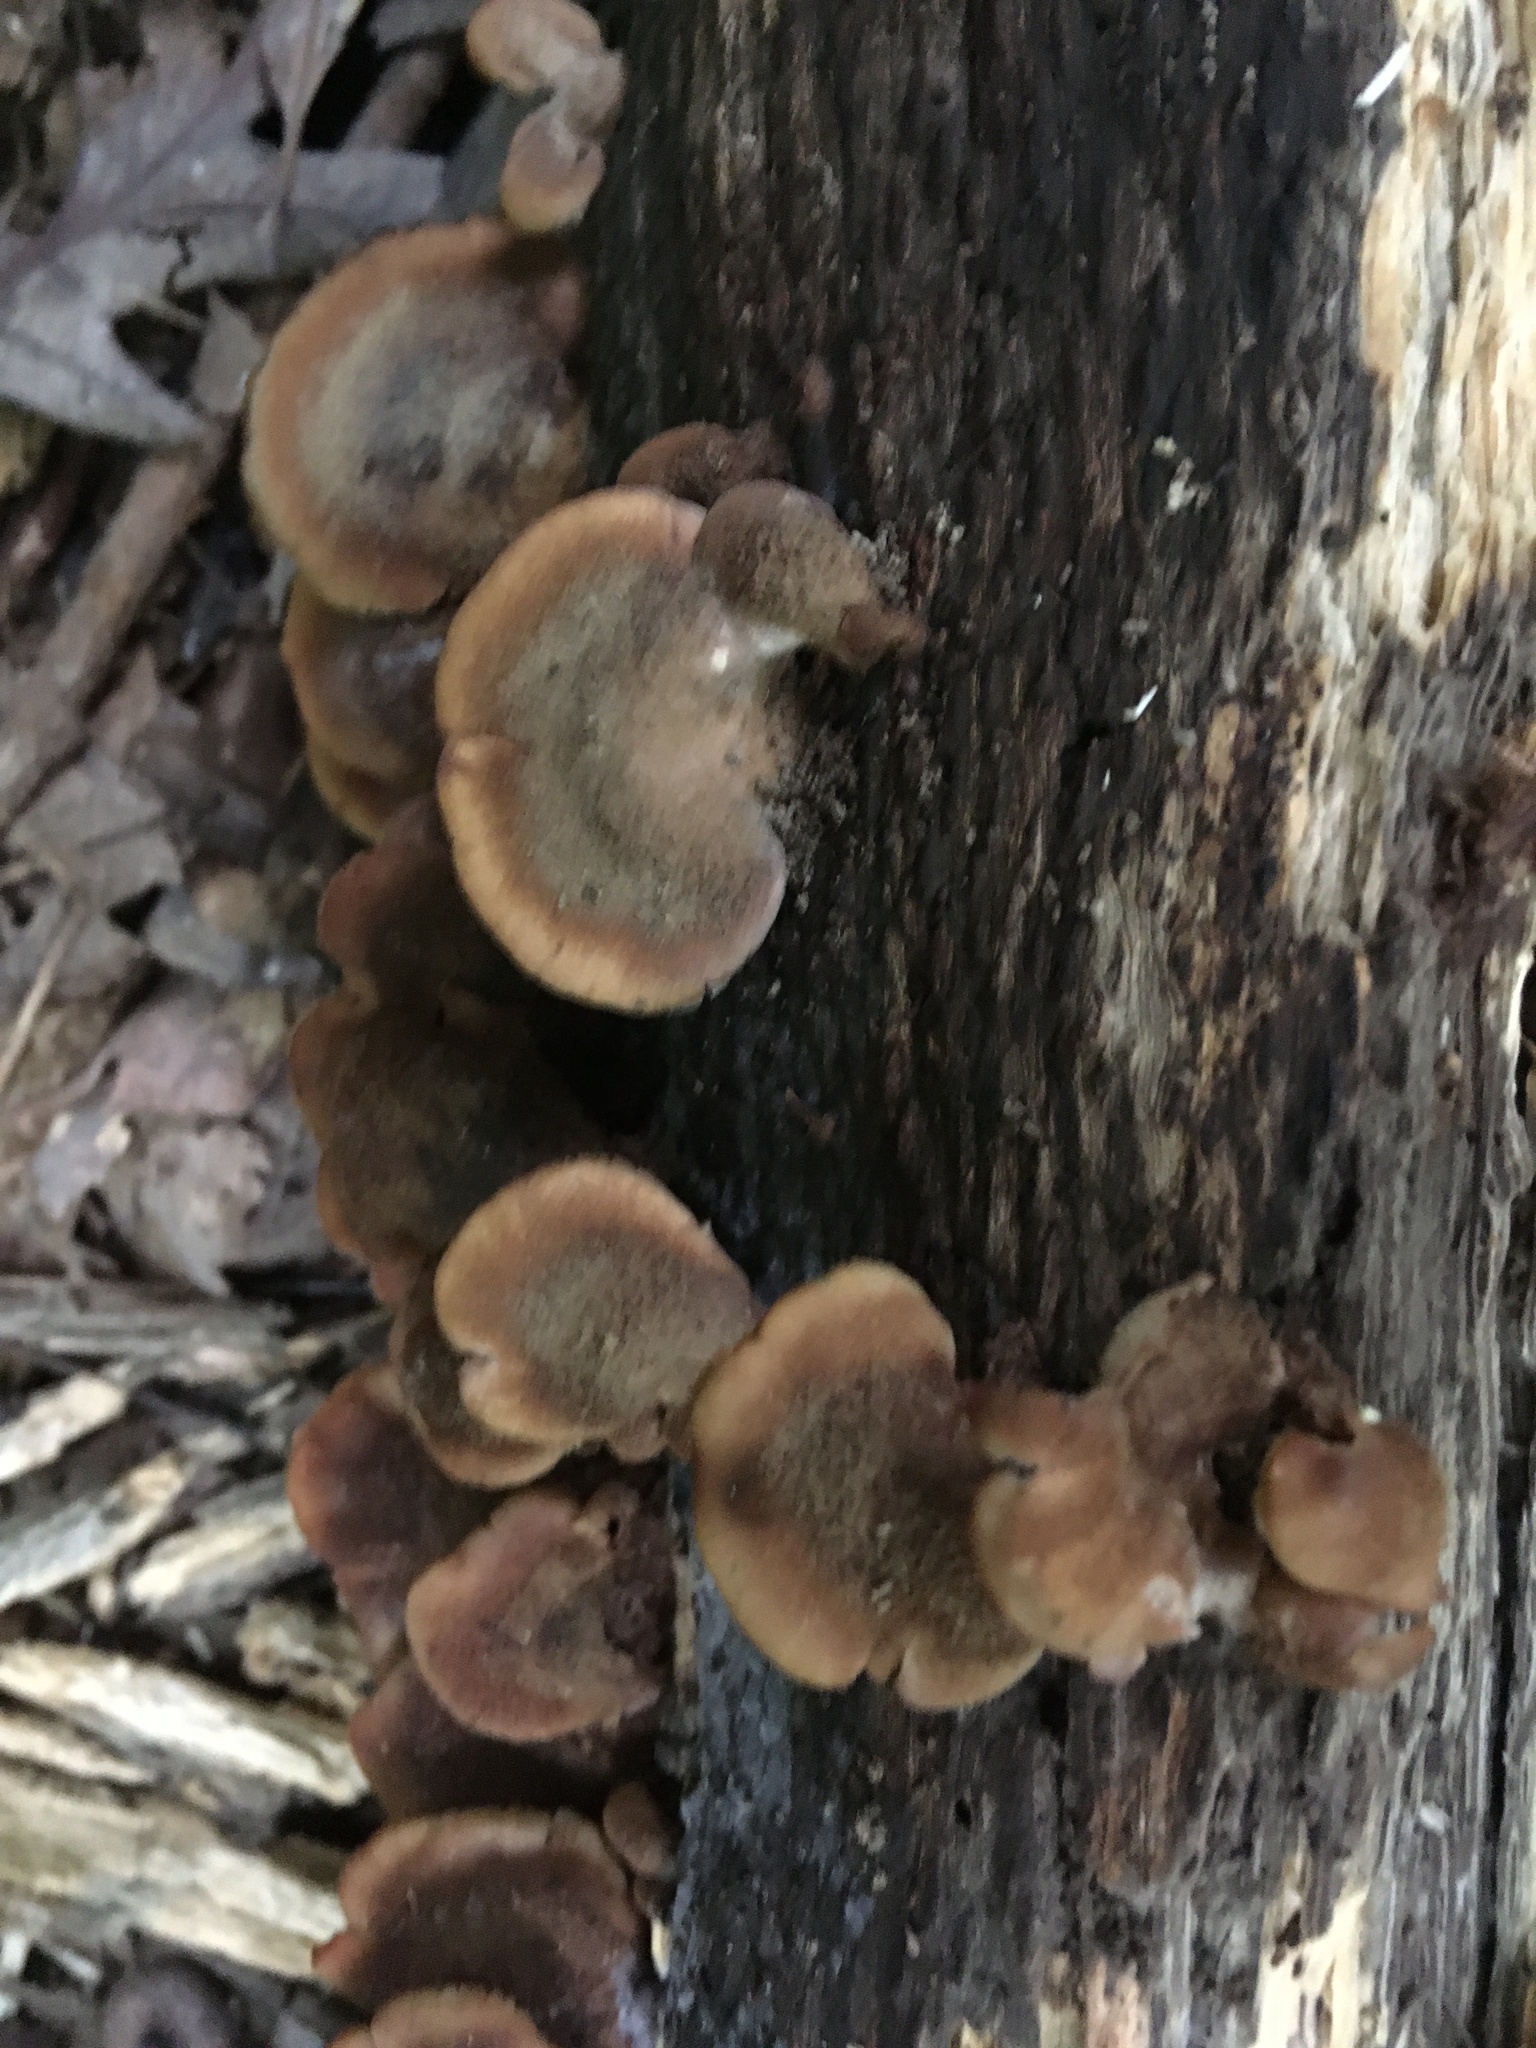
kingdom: Fungi
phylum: Basidiomycota
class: Agaricomycetes
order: Russulales
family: Auriscalpiaceae
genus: Lentinellus
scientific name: Lentinellus ursinus
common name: Bear lentinus
